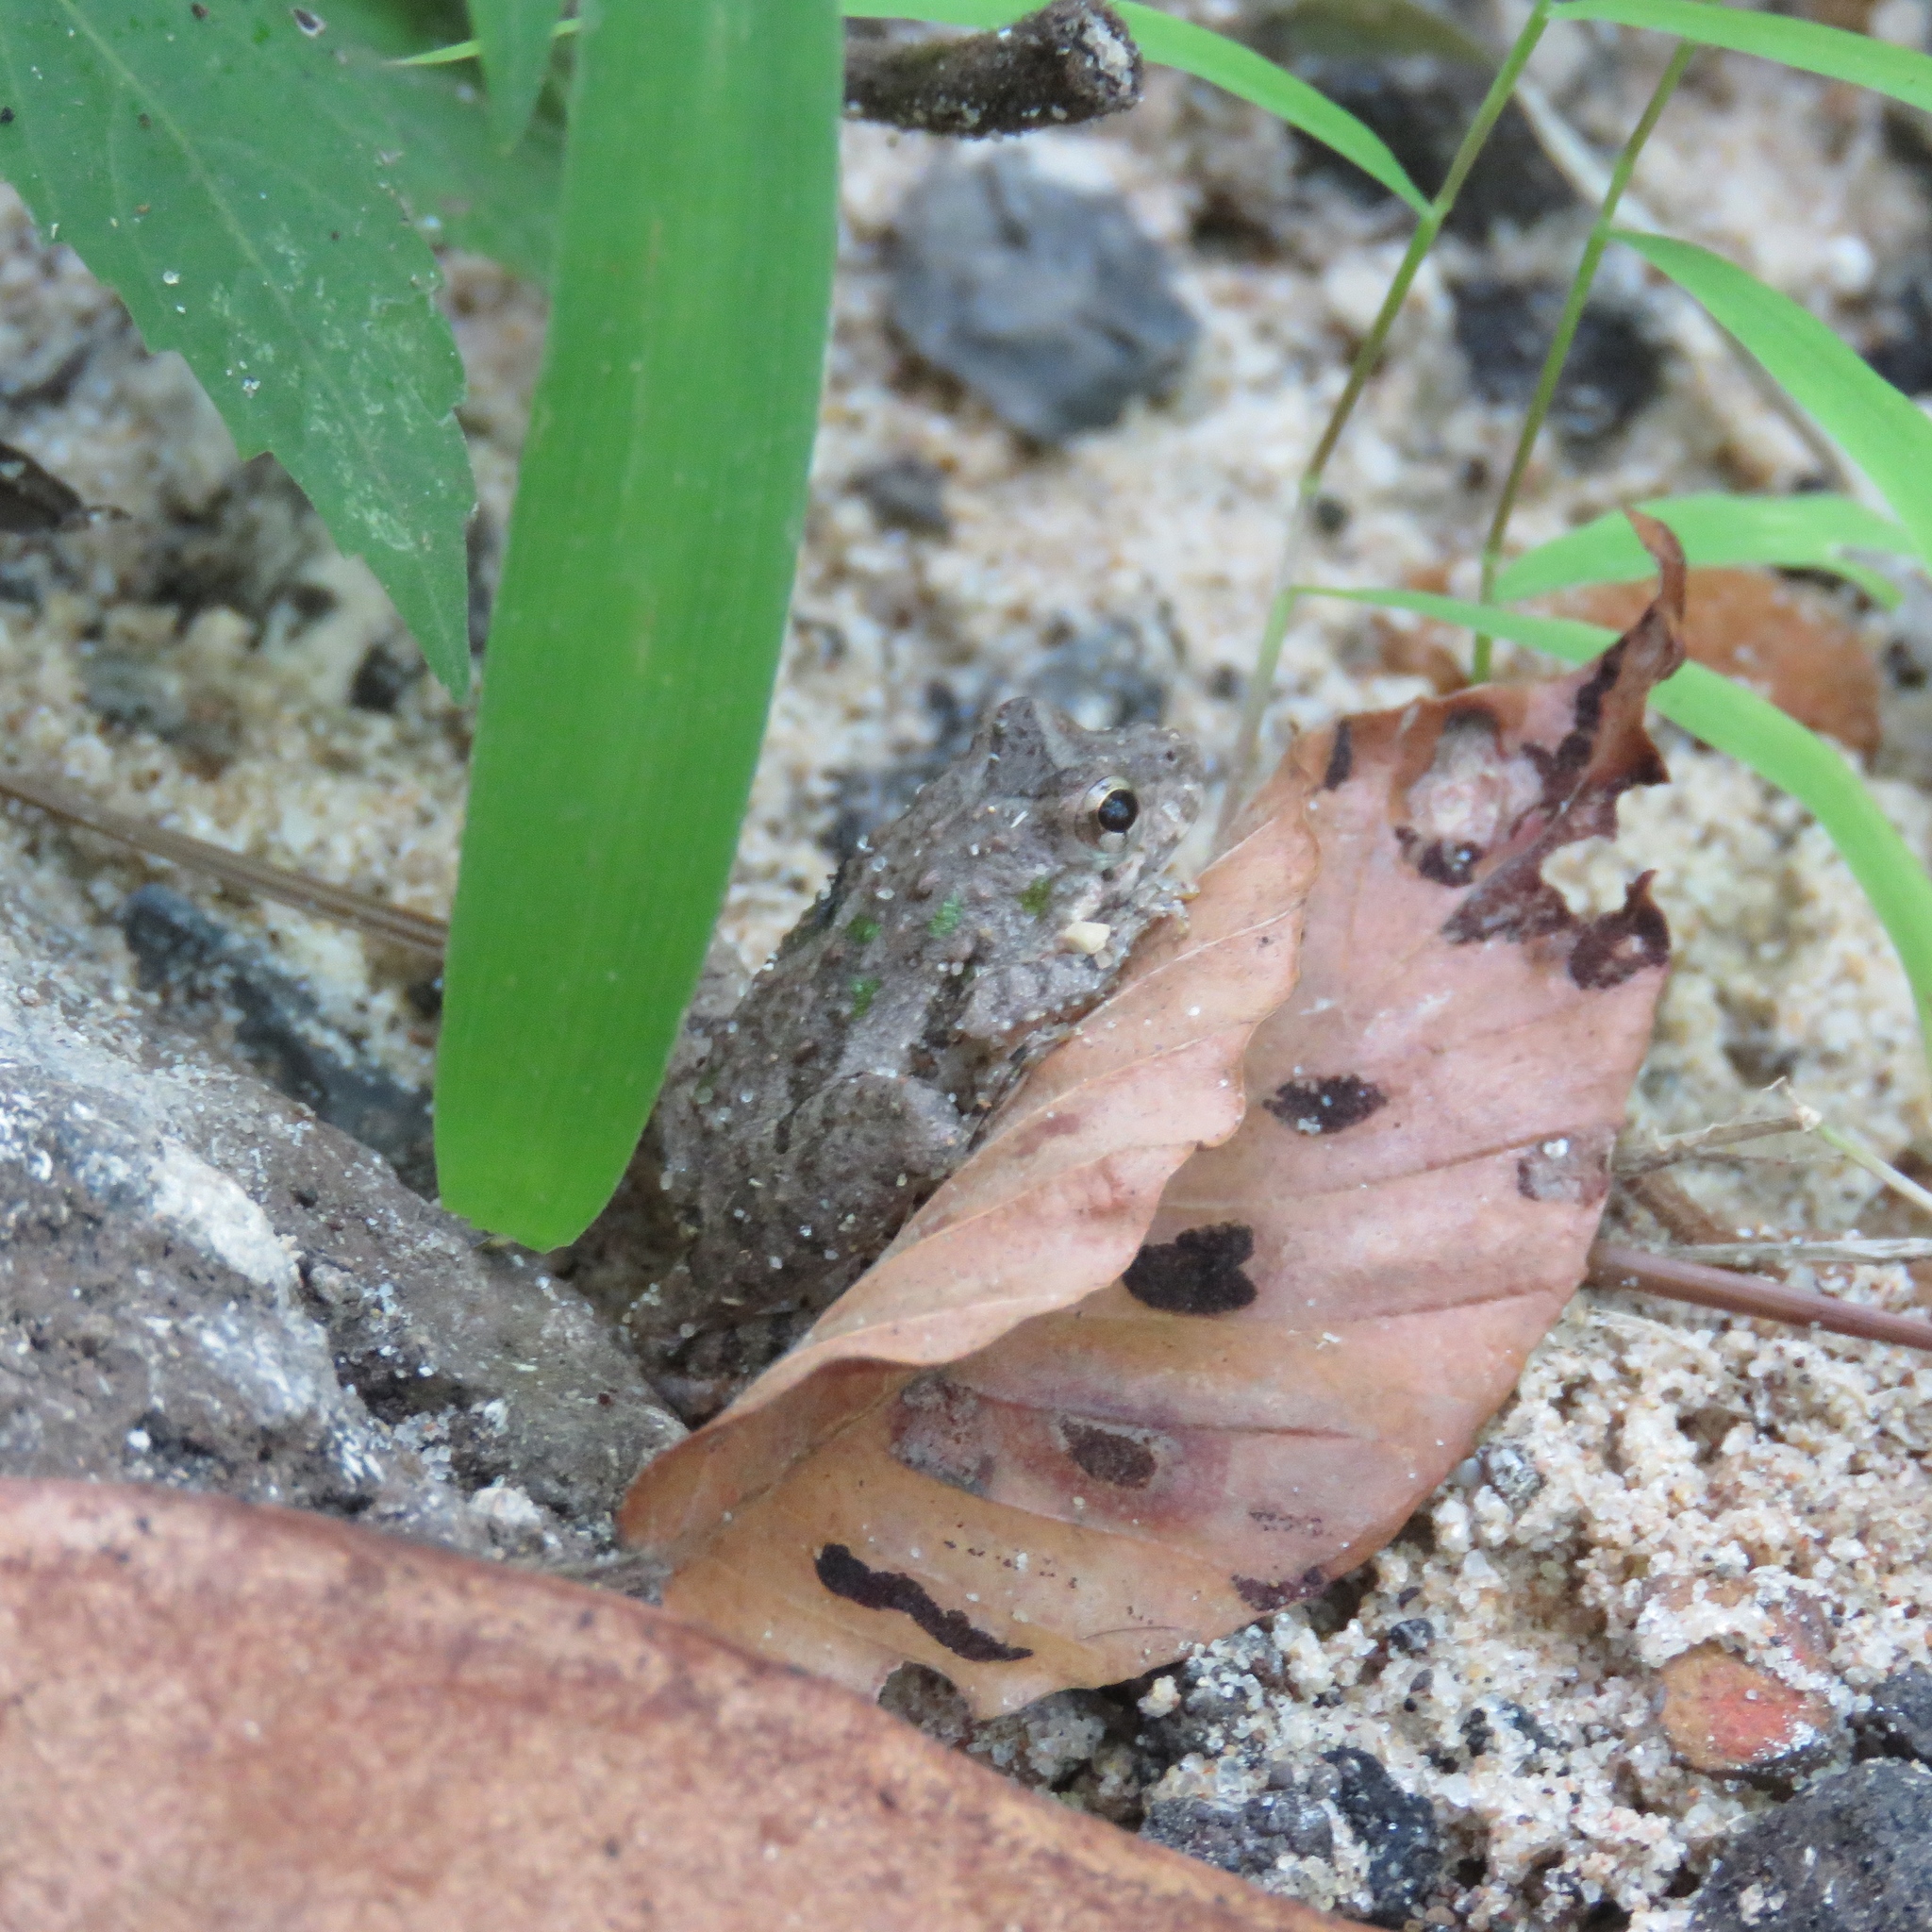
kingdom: Animalia
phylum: Chordata
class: Amphibia
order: Anura
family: Hylidae
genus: Acris
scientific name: Acris blanchardi
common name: Blanchard's cricket frog
